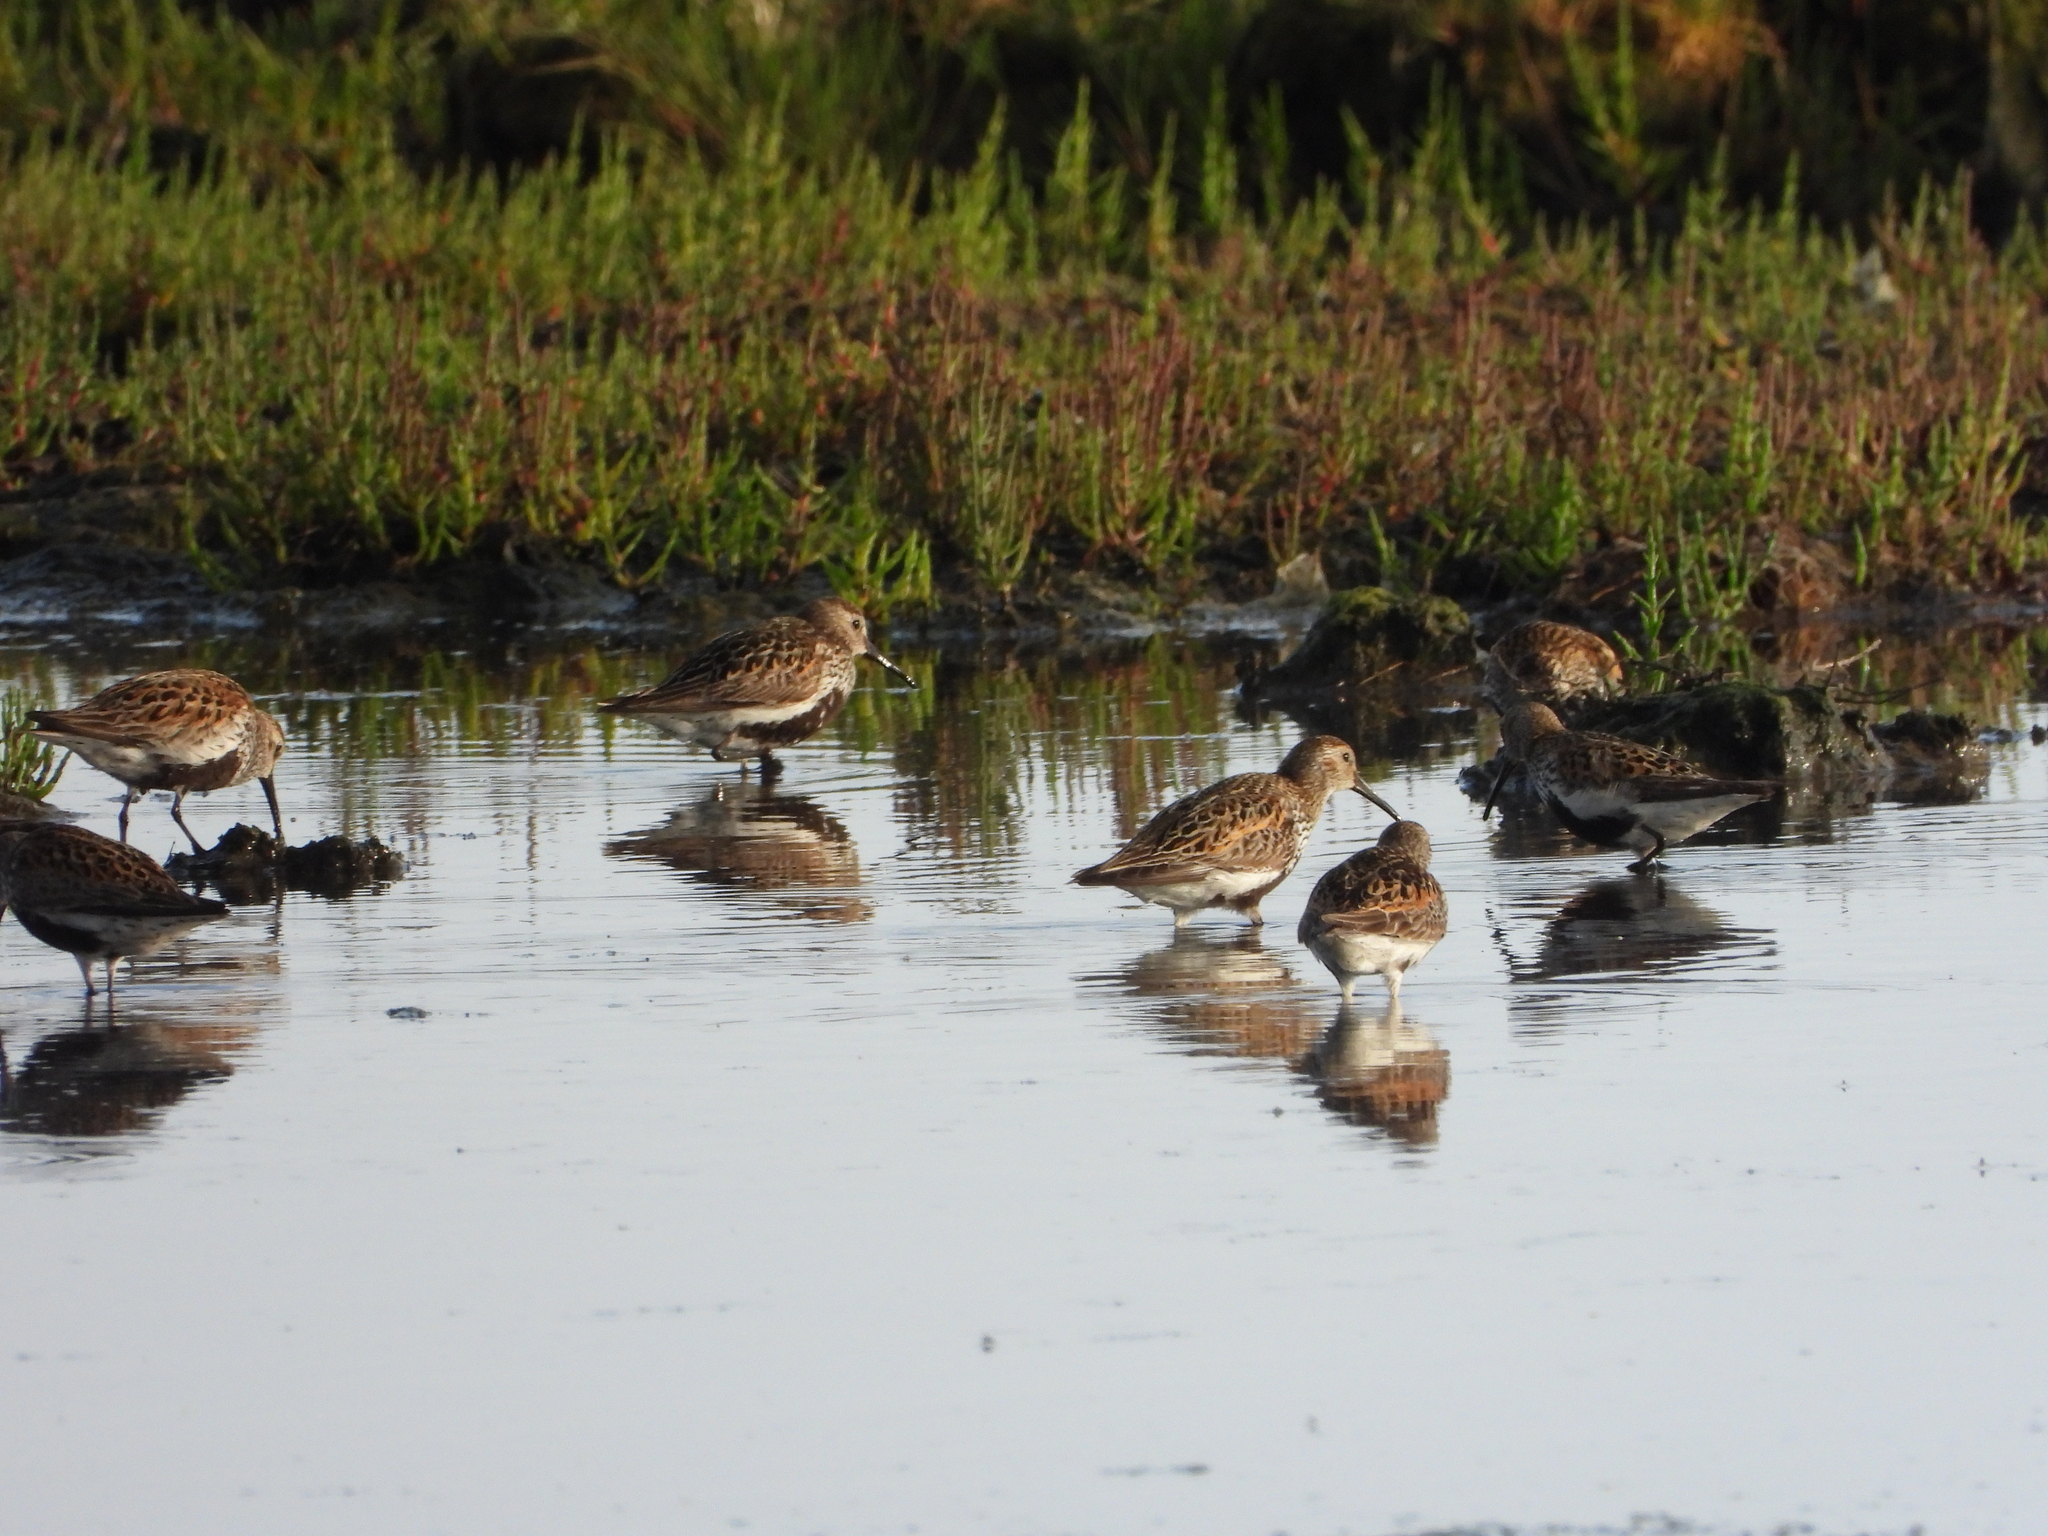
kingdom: Animalia
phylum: Chordata
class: Aves
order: Charadriiformes
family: Scolopacidae
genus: Calidris
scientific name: Calidris alpina
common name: Dunlin
